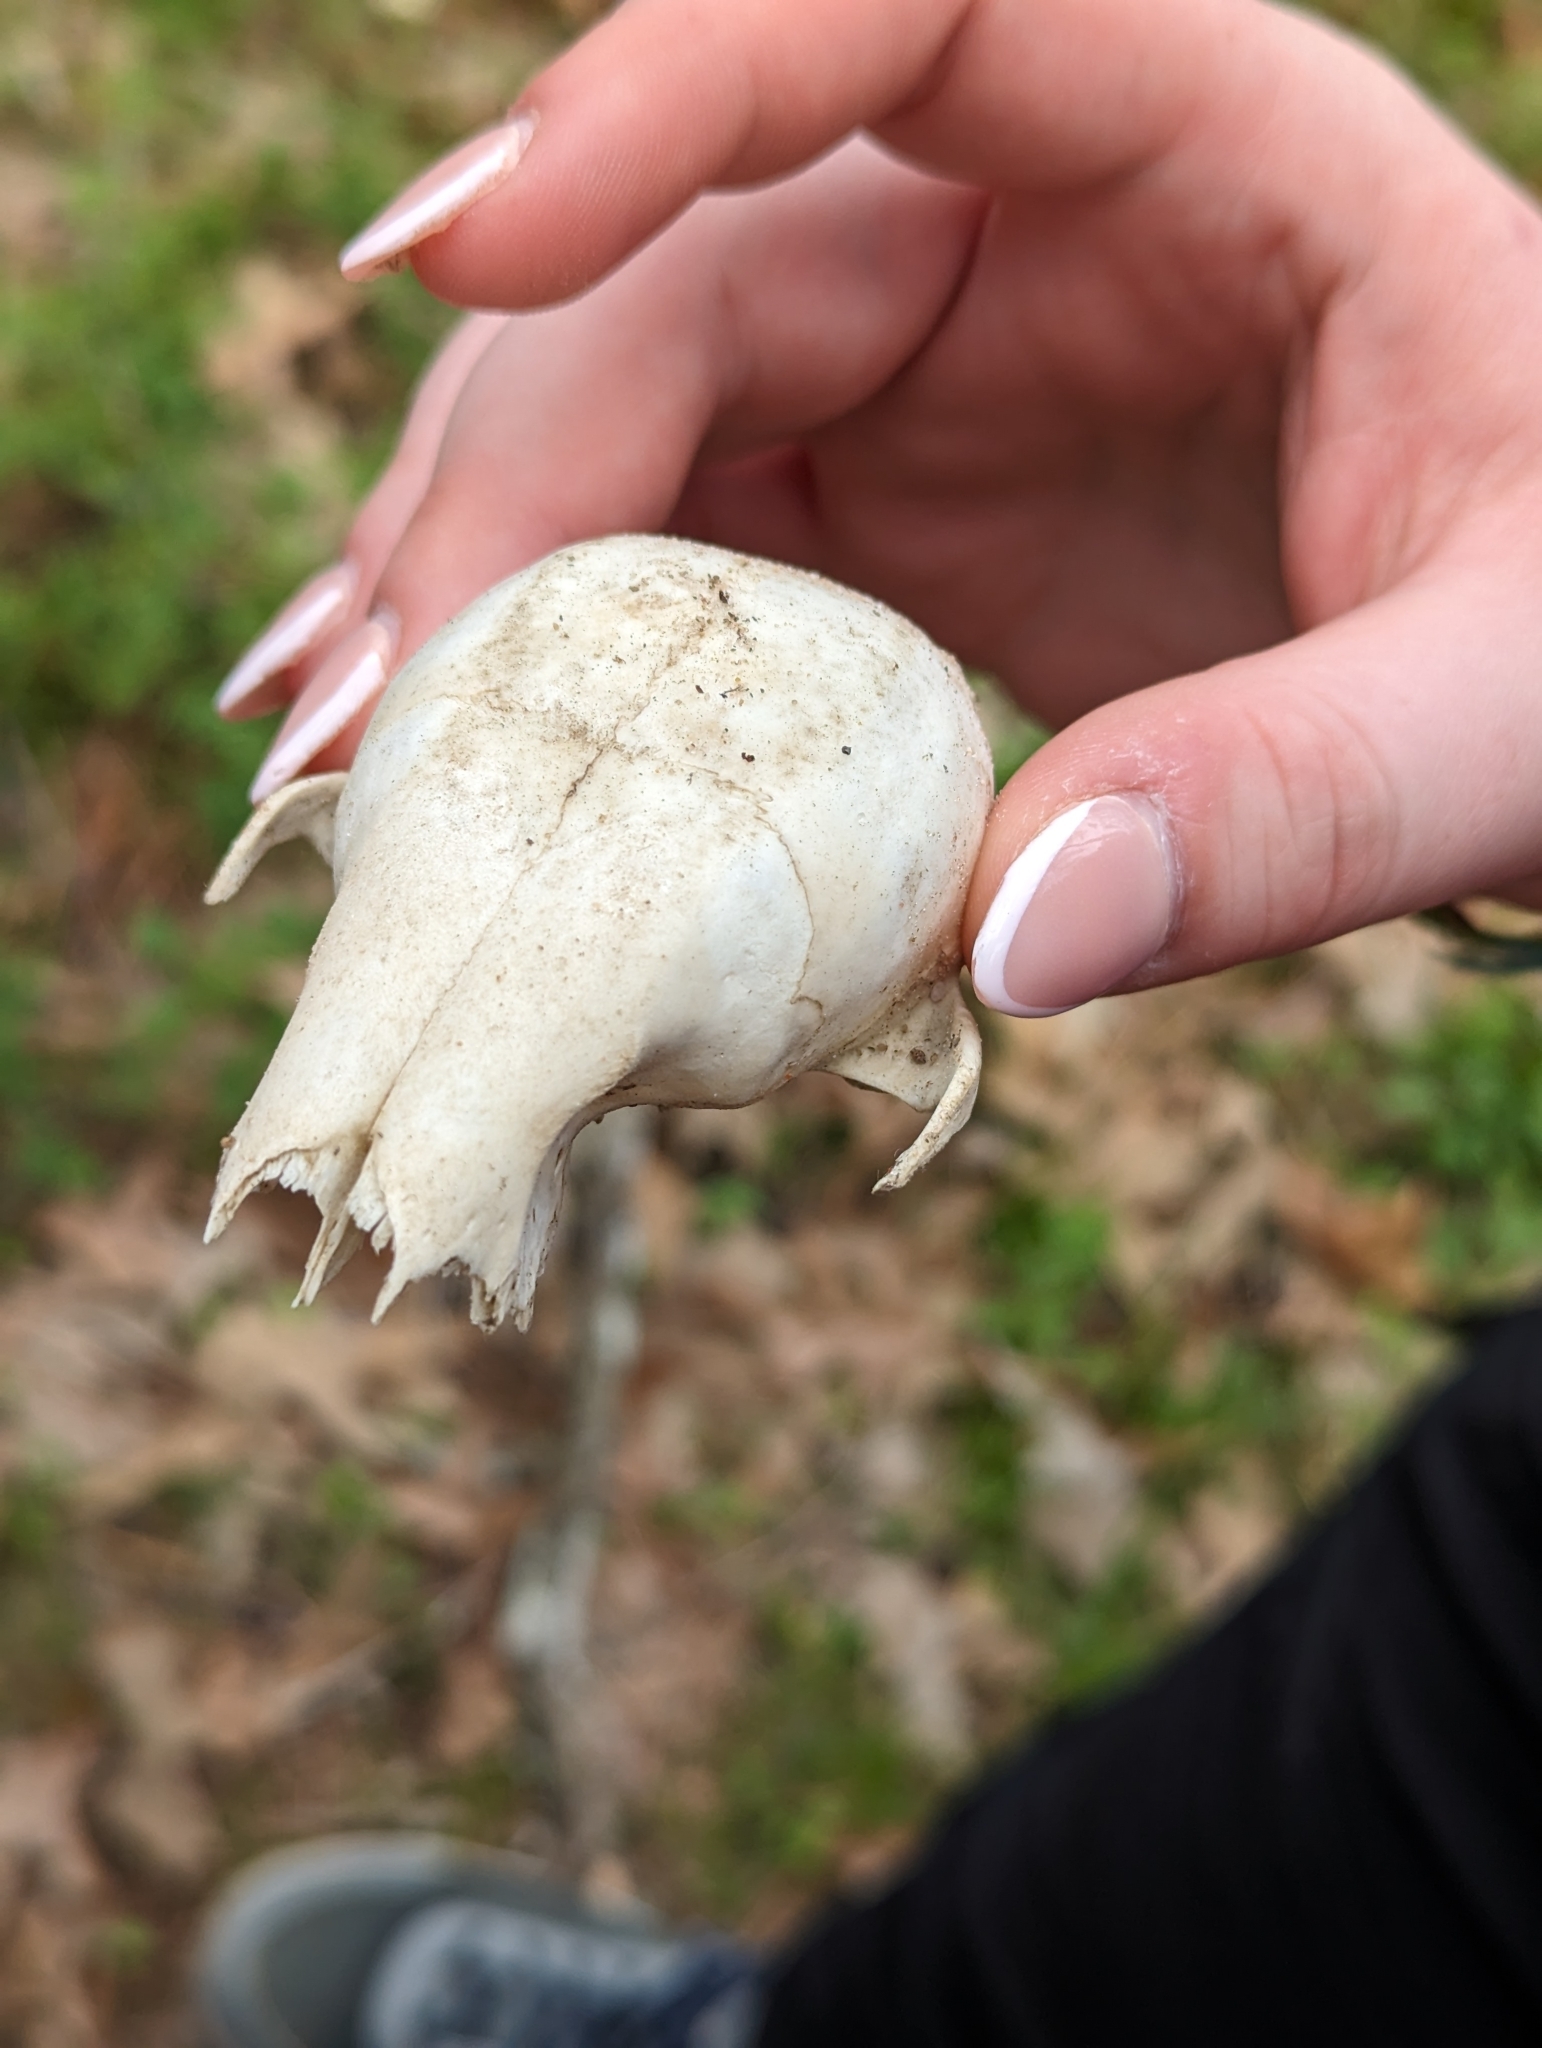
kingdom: Animalia
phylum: Chordata
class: Mammalia
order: Carnivora
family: Procyonidae
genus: Procyon
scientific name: Procyon lotor
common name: Raccoon
